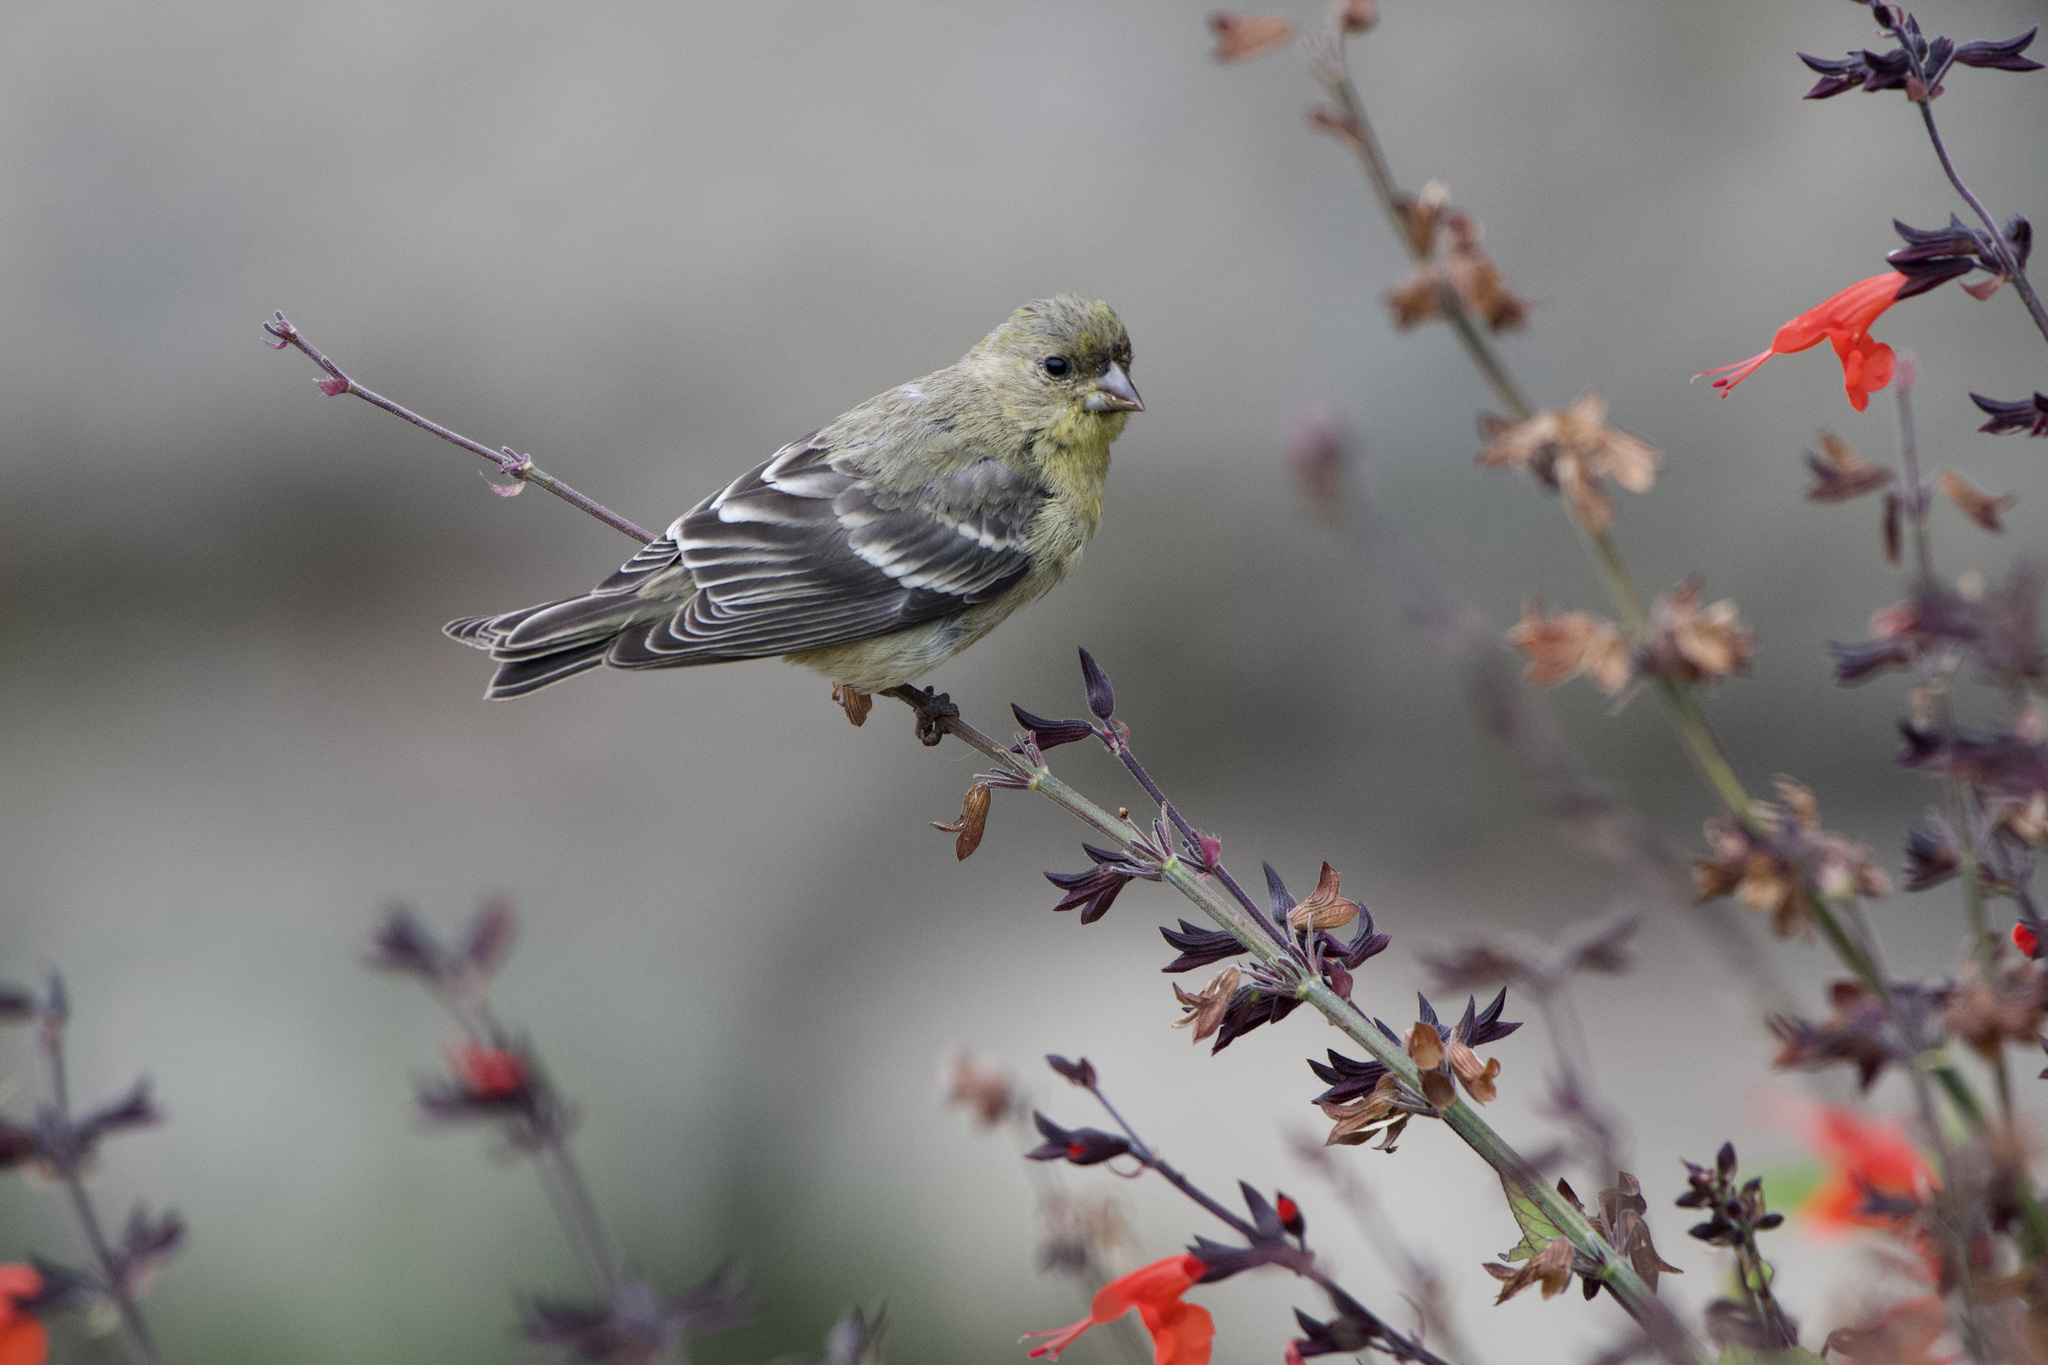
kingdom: Animalia
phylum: Chordata
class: Aves
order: Passeriformes
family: Fringillidae
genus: Spinus
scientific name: Spinus psaltria
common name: Lesser goldfinch
